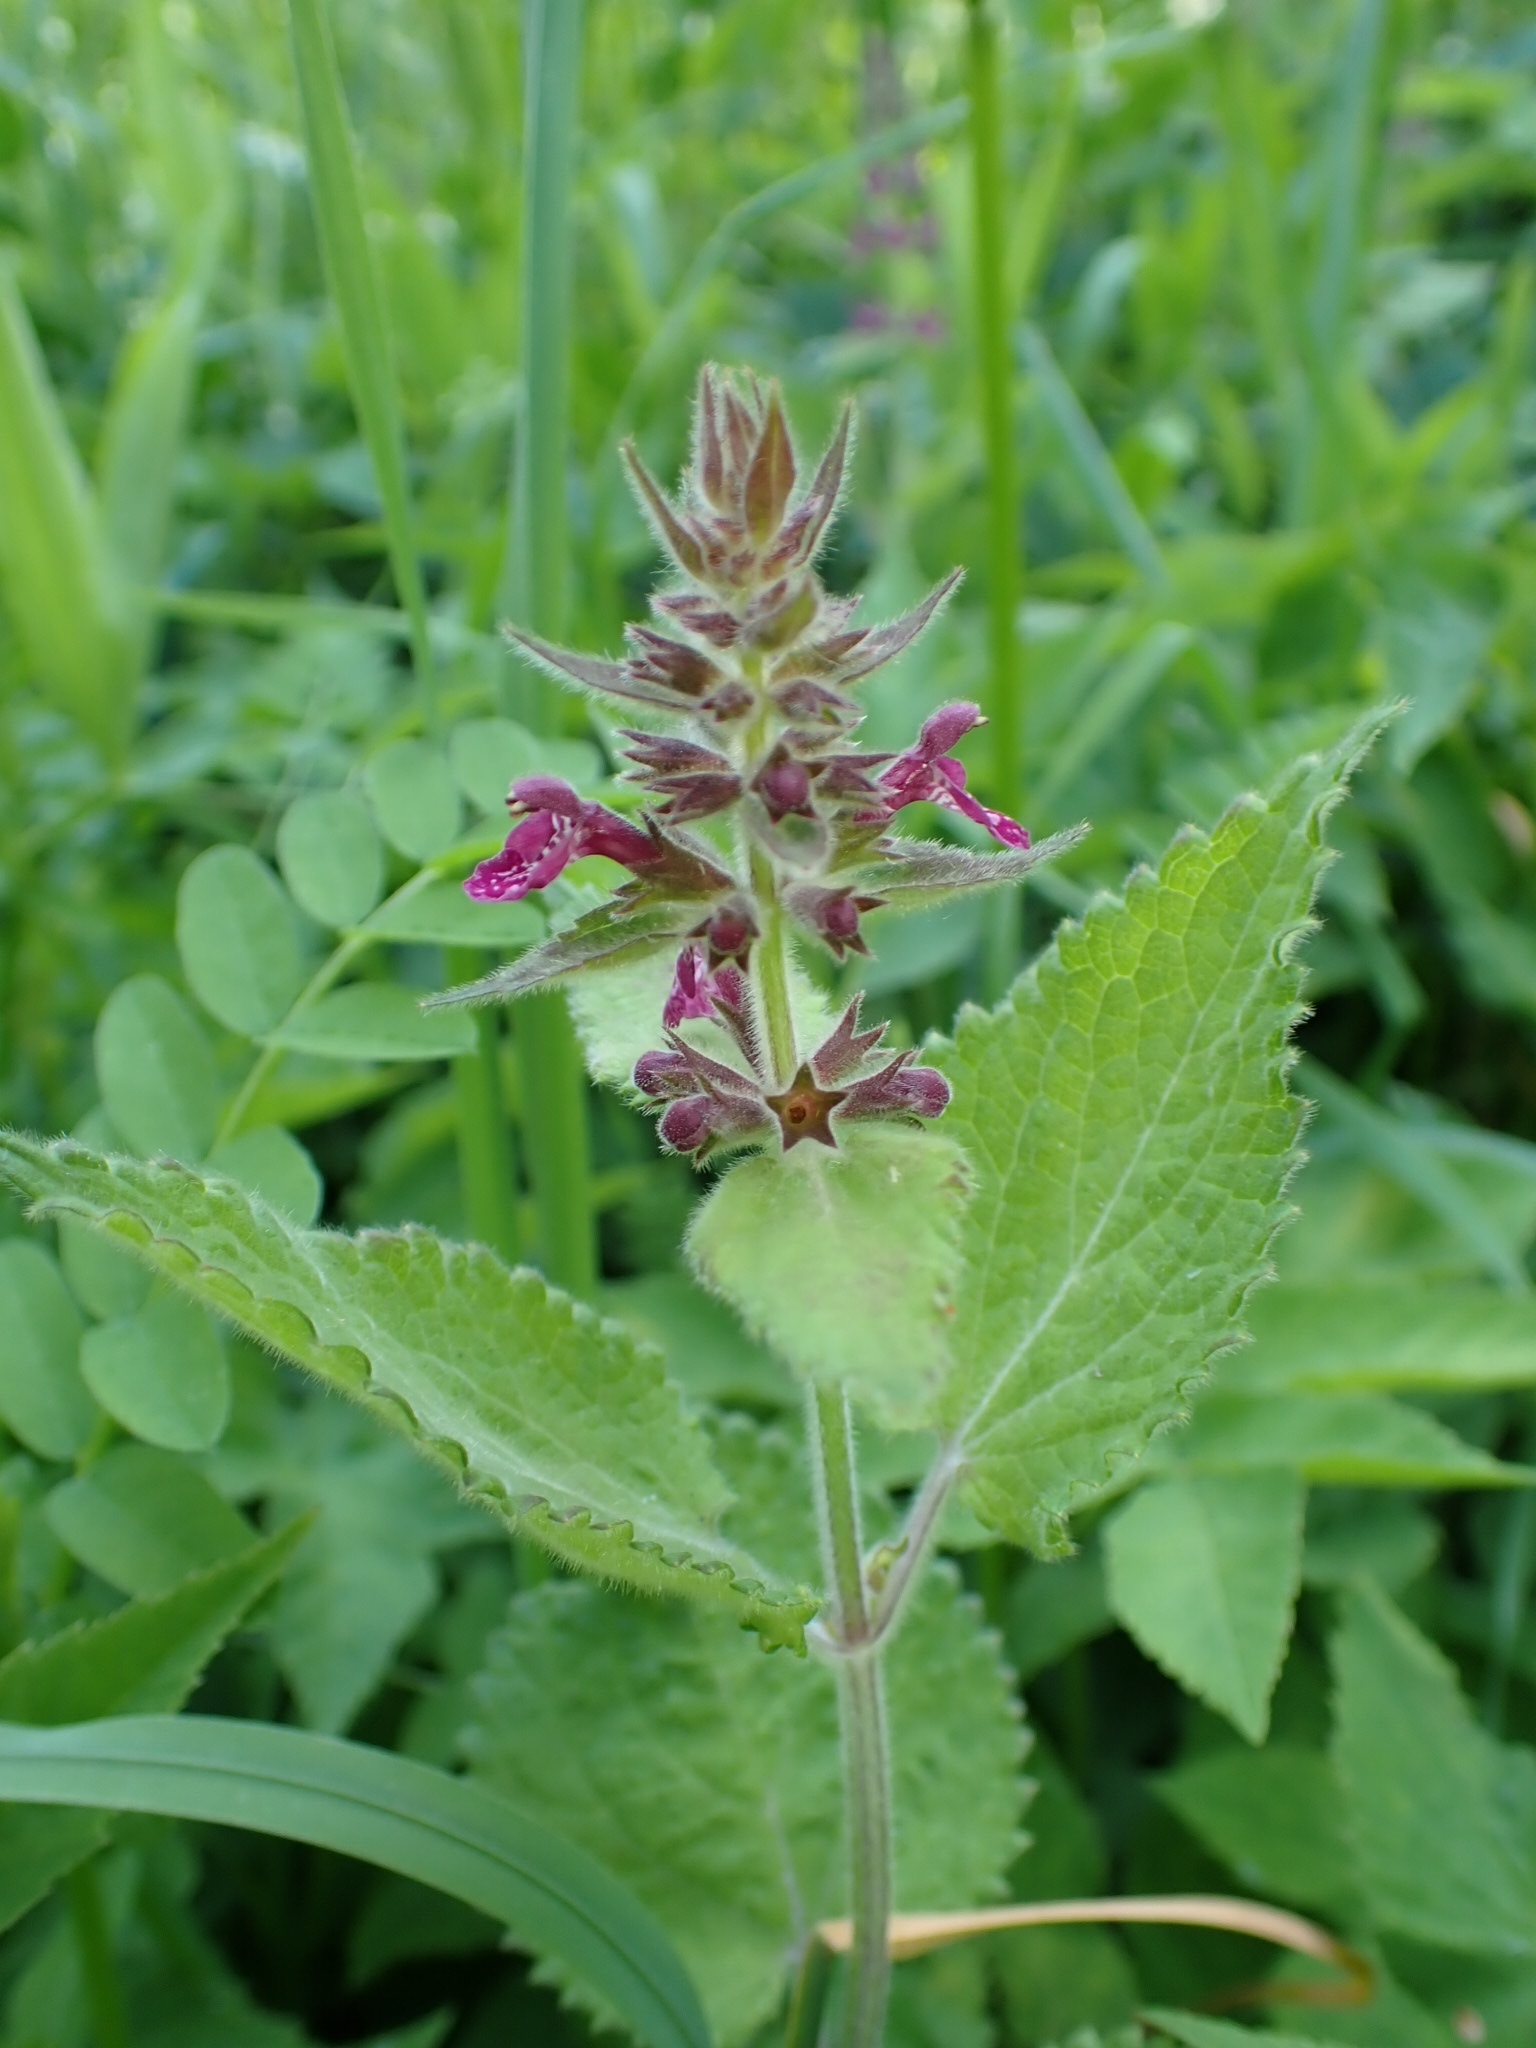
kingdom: Plantae
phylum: Tracheophyta
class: Magnoliopsida
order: Lamiales
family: Lamiaceae
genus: Stachys
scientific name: Stachys sylvatica
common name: Hedge woundwort
